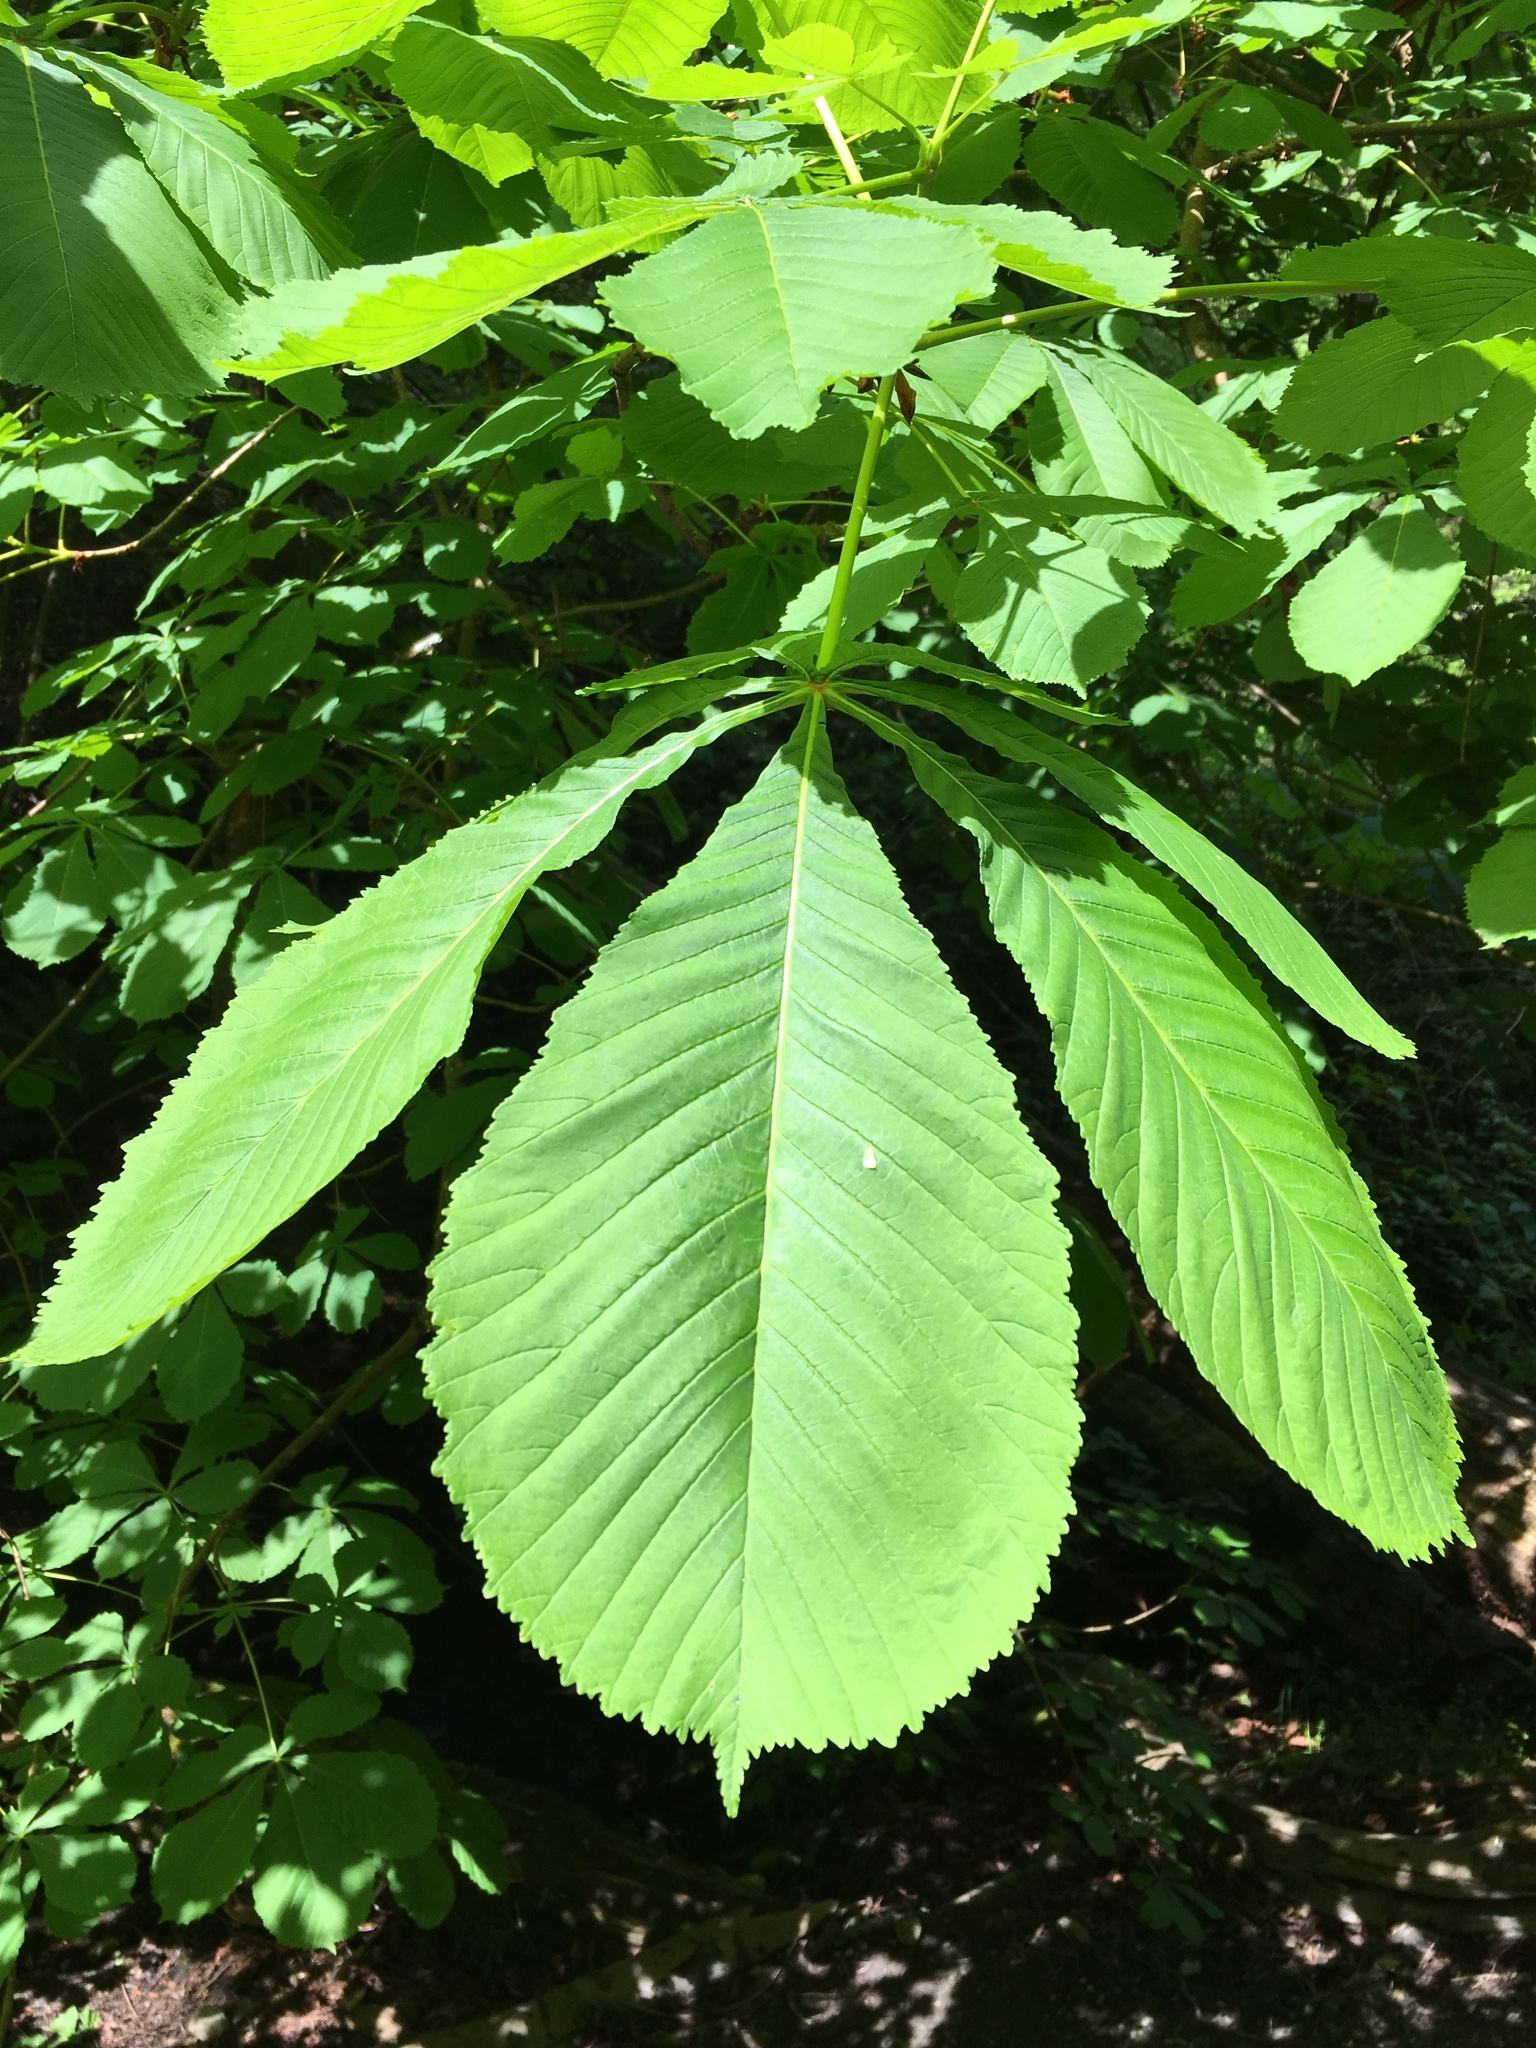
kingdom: Plantae
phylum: Tracheophyta
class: Magnoliopsida
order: Sapindales
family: Sapindaceae
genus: Aesculus
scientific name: Aesculus hippocastanum
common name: Horse-chestnut
